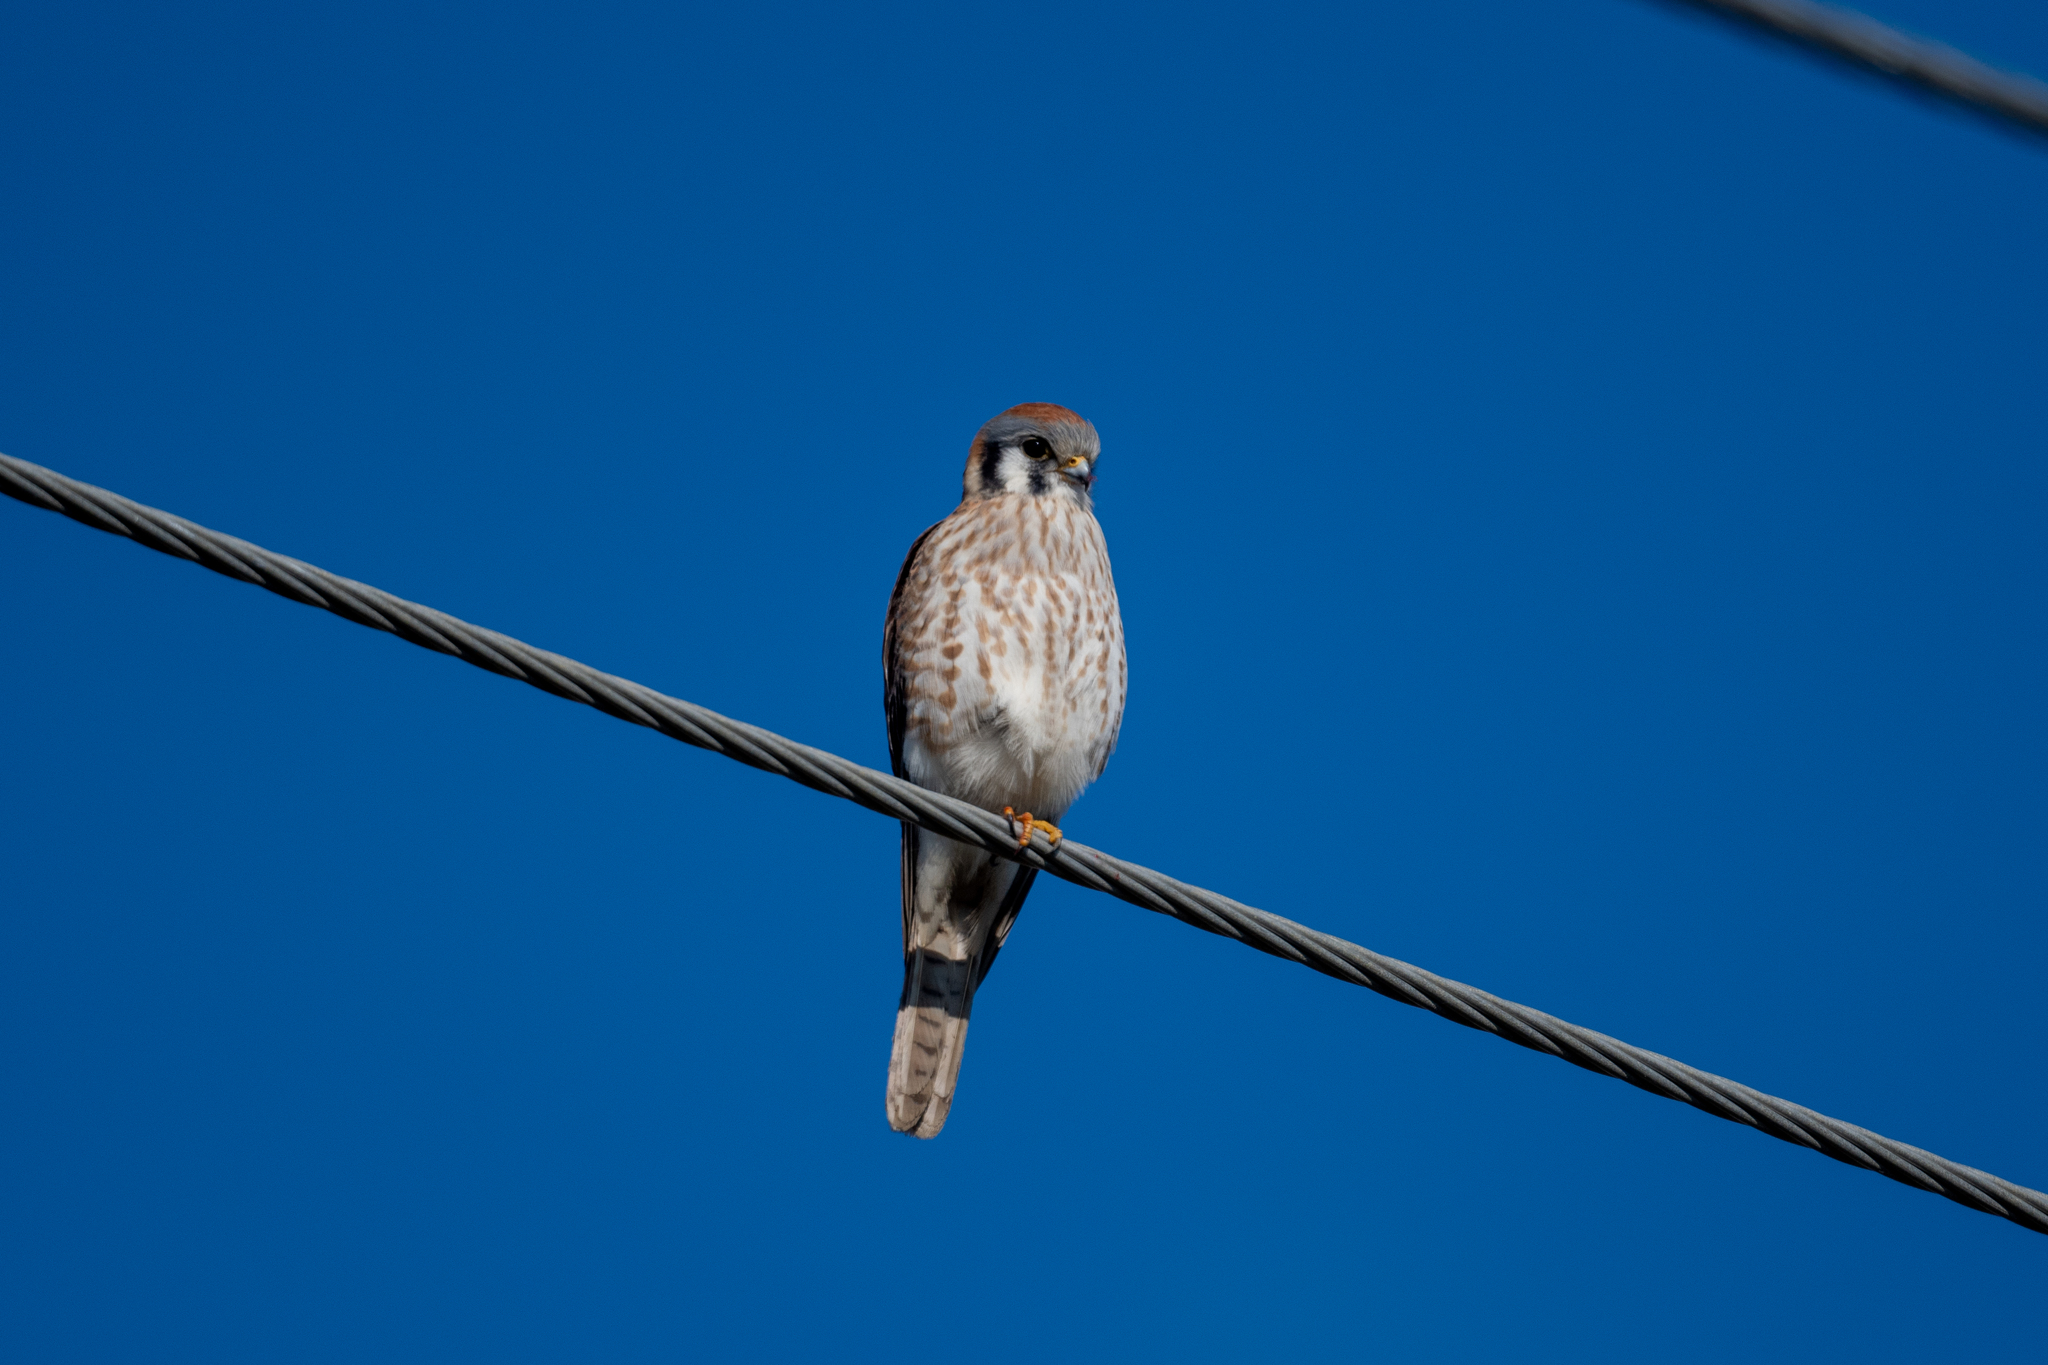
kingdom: Animalia
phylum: Chordata
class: Aves
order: Falconiformes
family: Falconidae
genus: Falco
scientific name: Falco sparverius
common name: American kestrel
